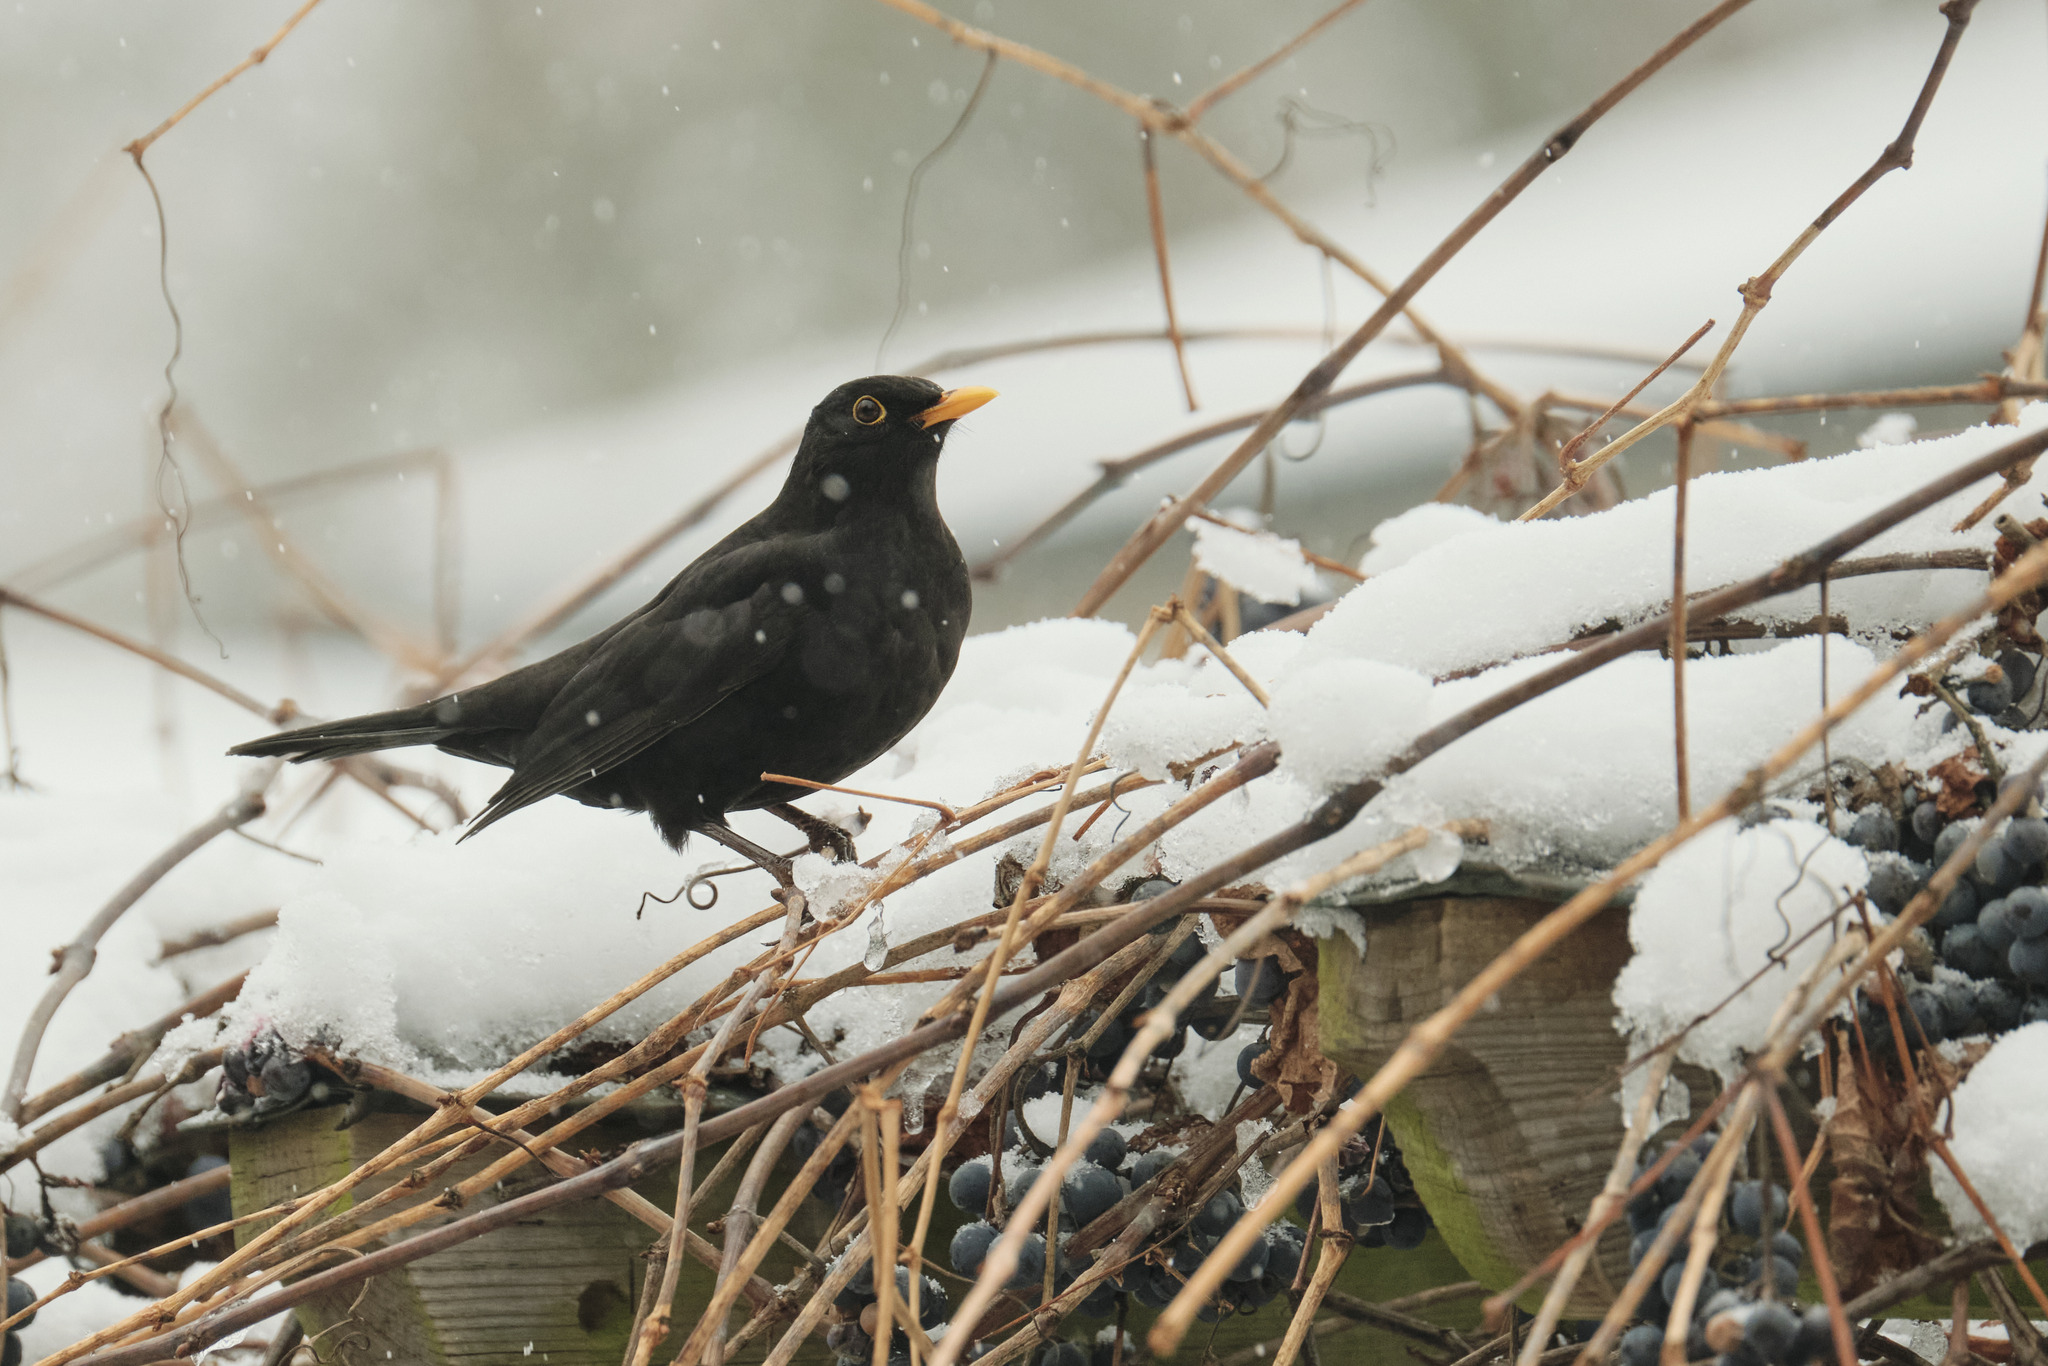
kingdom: Animalia
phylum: Chordata
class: Aves
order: Passeriformes
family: Turdidae
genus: Turdus
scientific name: Turdus merula
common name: Common blackbird
